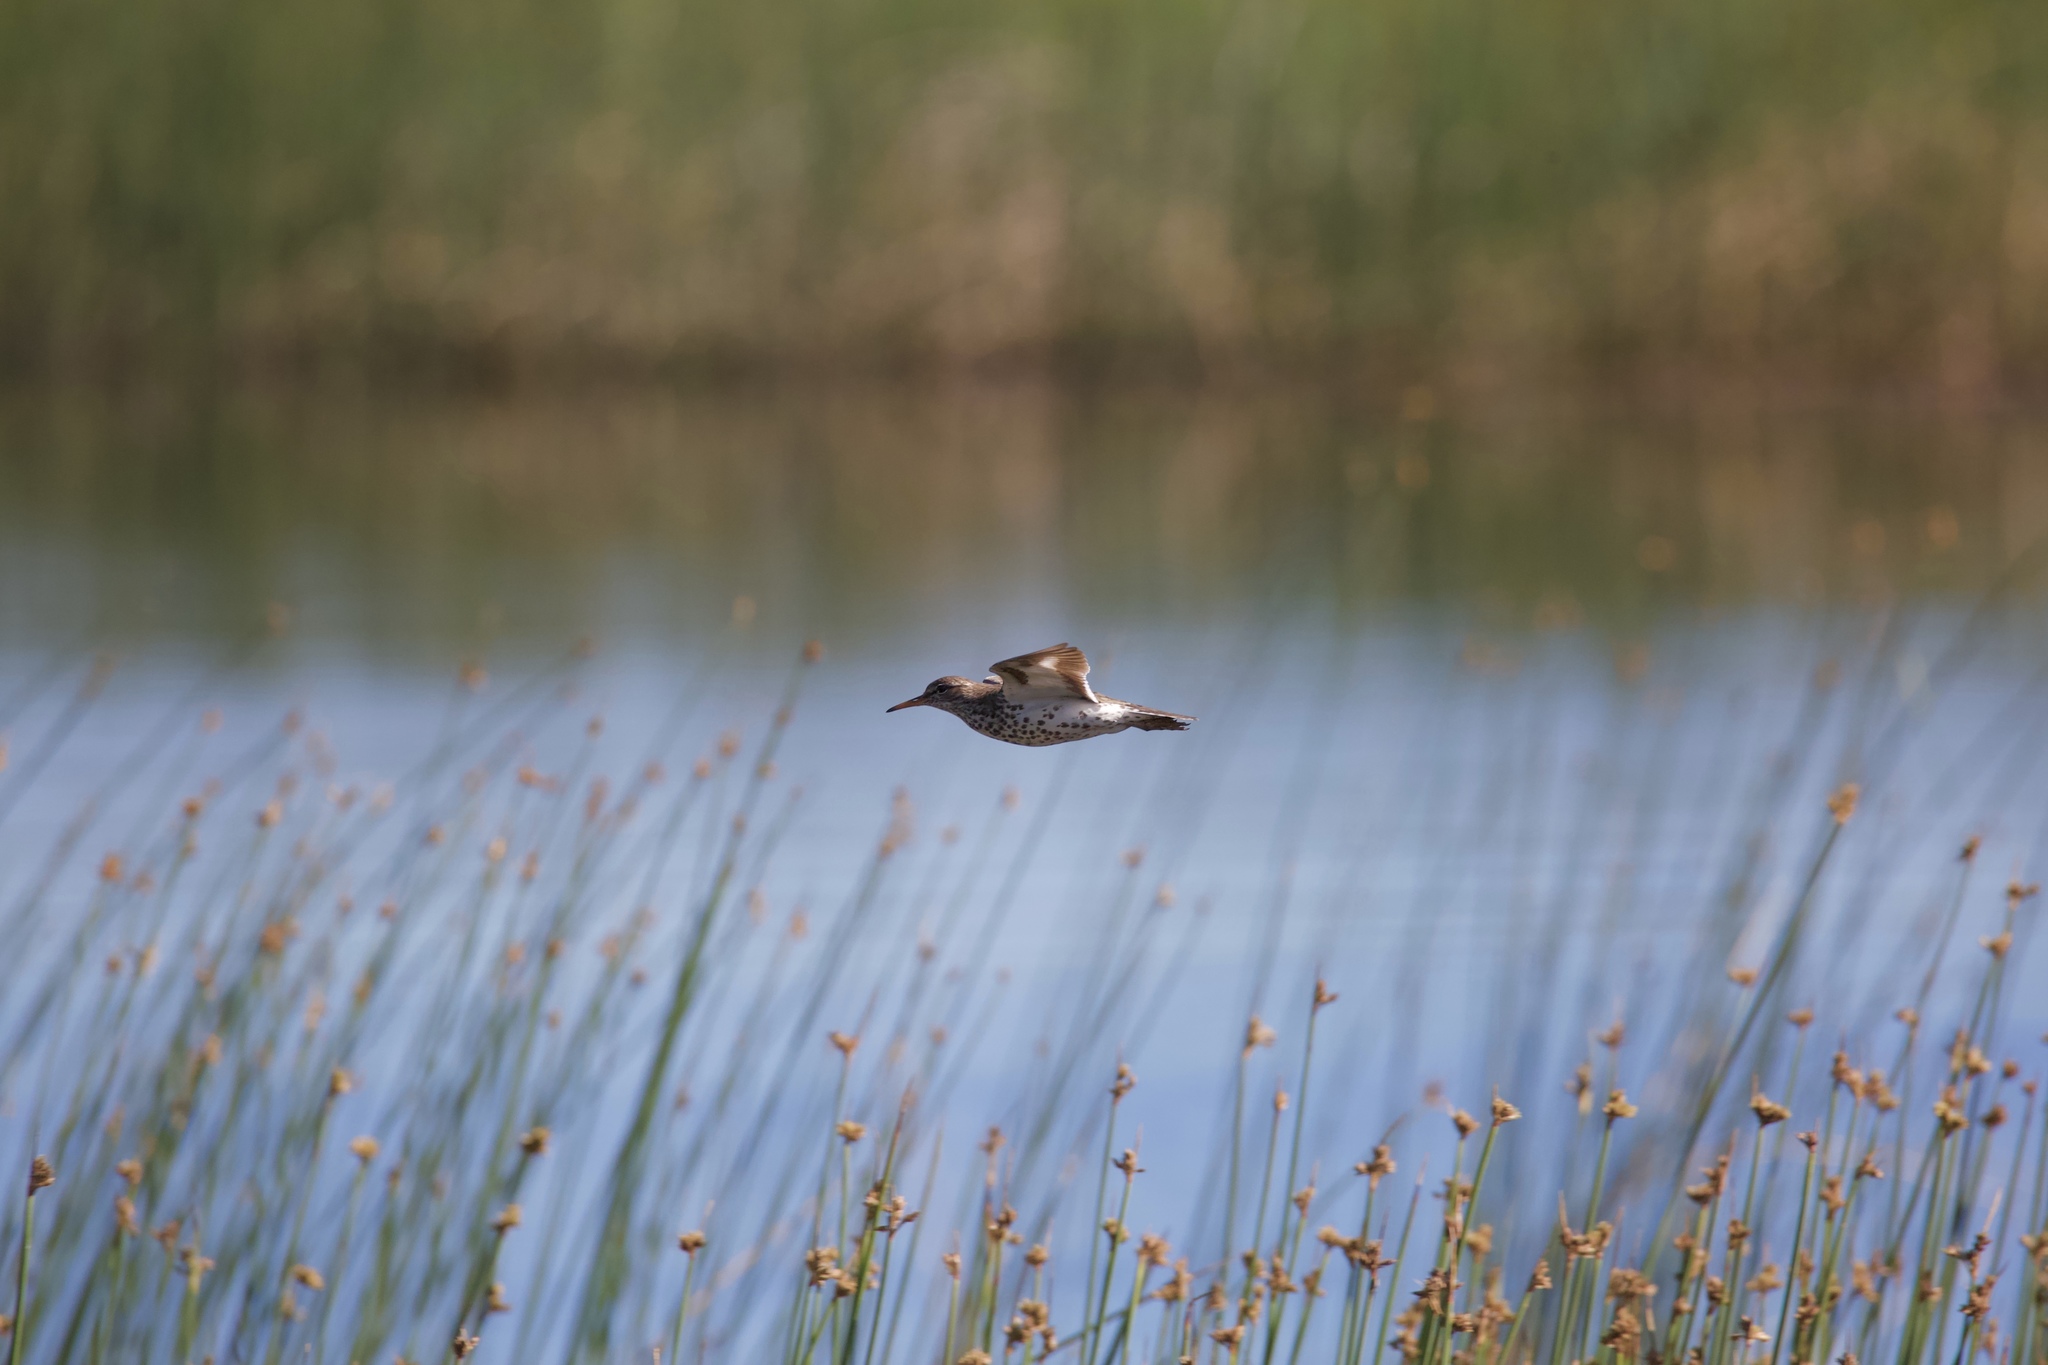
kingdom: Animalia
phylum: Chordata
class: Aves
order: Charadriiformes
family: Scolopacidae
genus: Actitis
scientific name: Actitis macularius
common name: Spotted sandpiper
